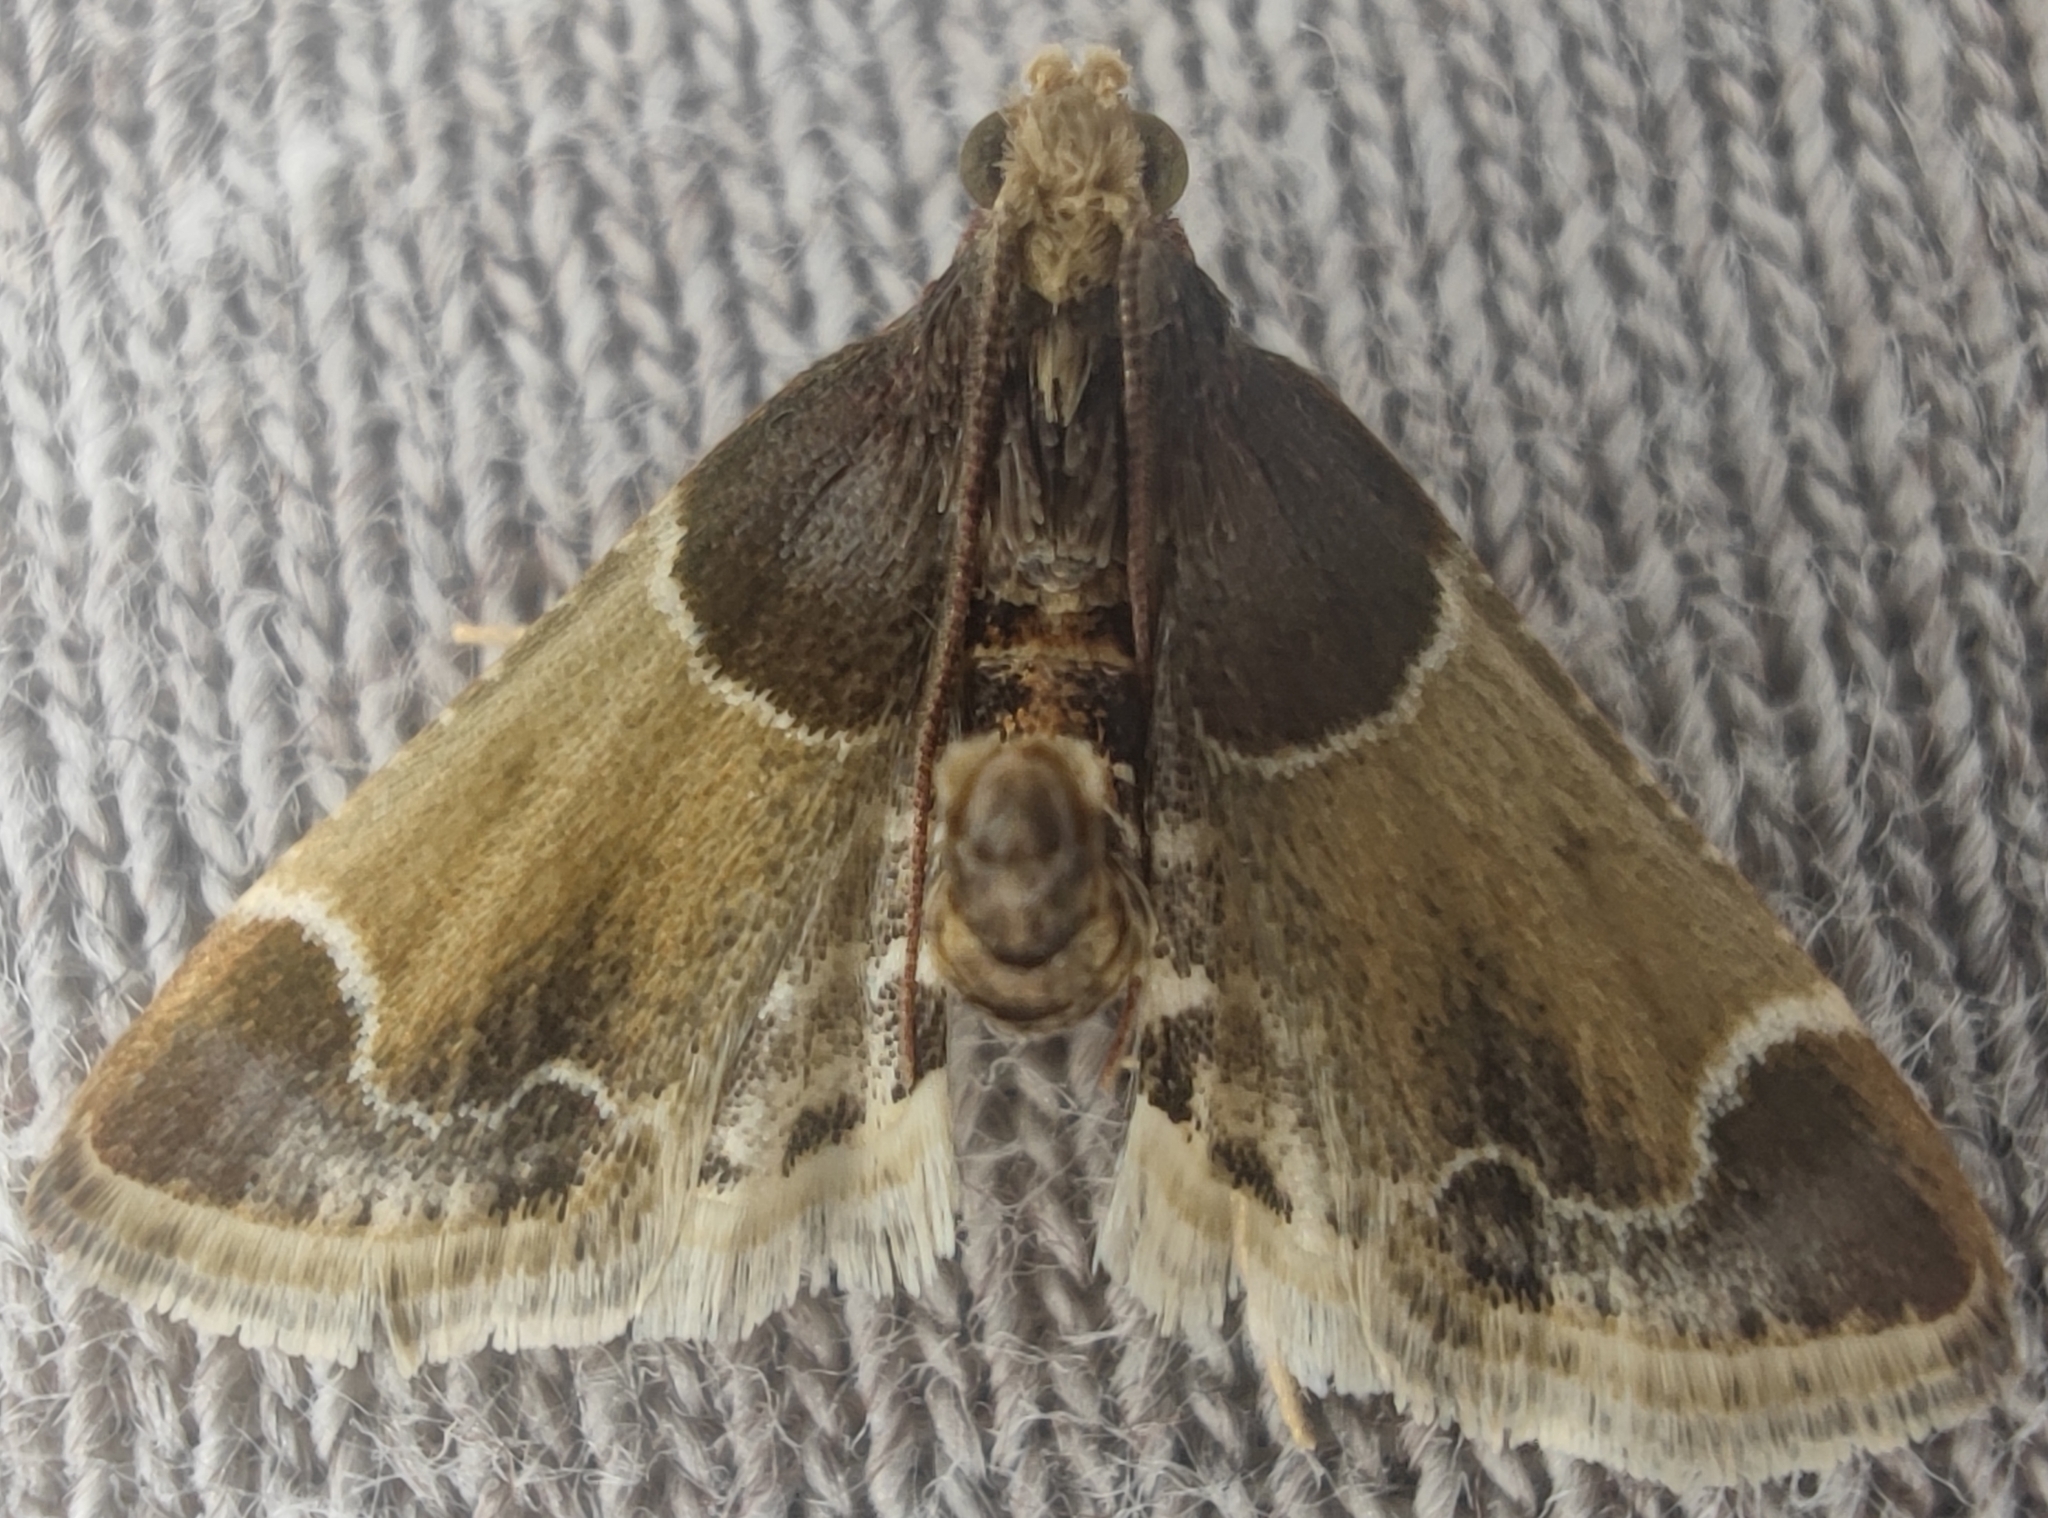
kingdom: Animalia
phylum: Arthropoda
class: Insecta
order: Lepidoptera
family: Pyralidae
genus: Pyralis
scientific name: Pyralis farinalis
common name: Meal moth
